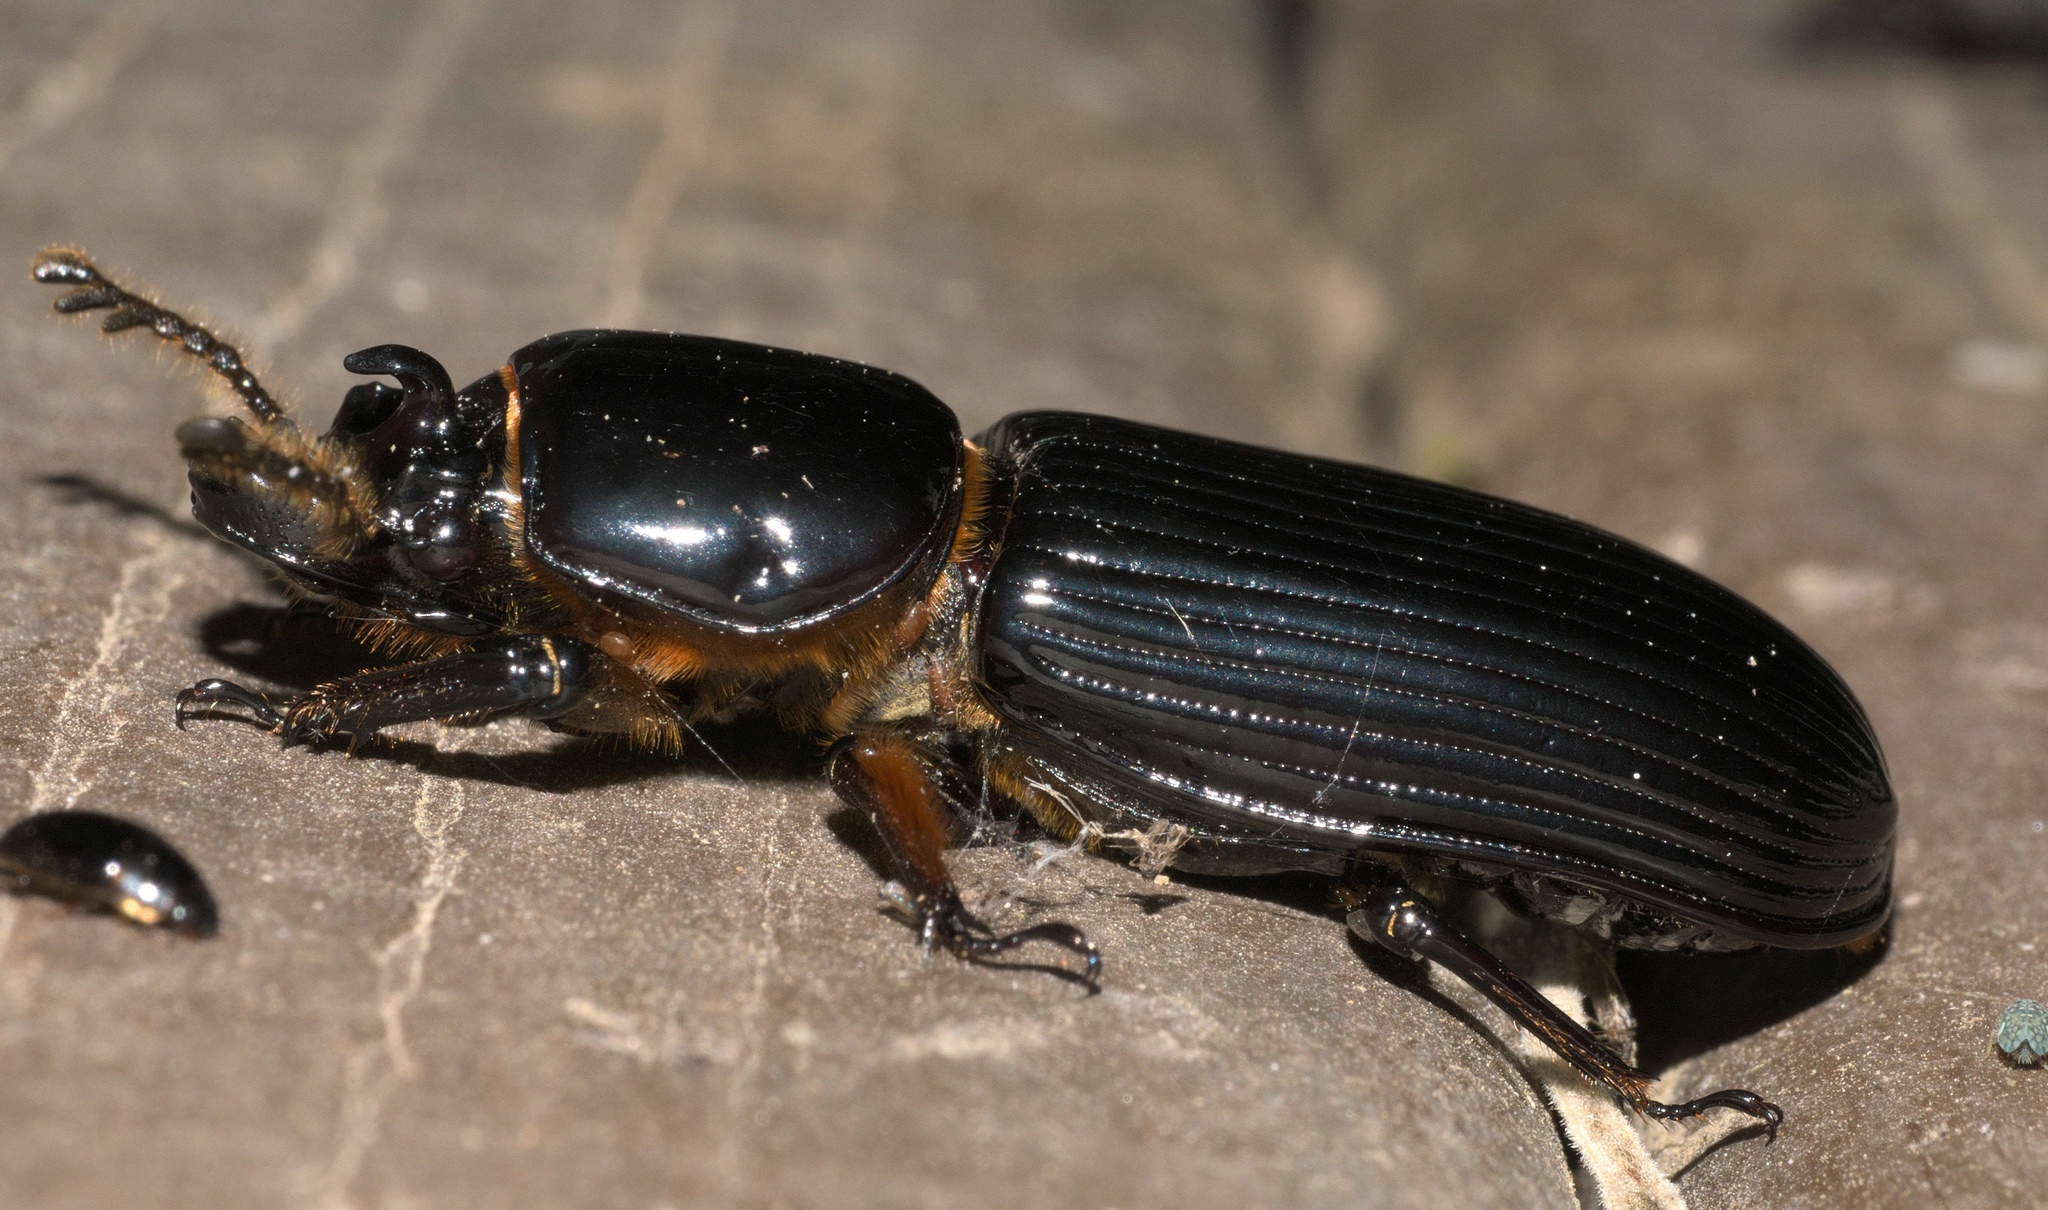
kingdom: Animalia
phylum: Arthropoda
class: Insecta
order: Coleoptera
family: Passalidae
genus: Odontotaenius
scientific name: Odontotaenius disjunctus
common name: Patent leather beetle
